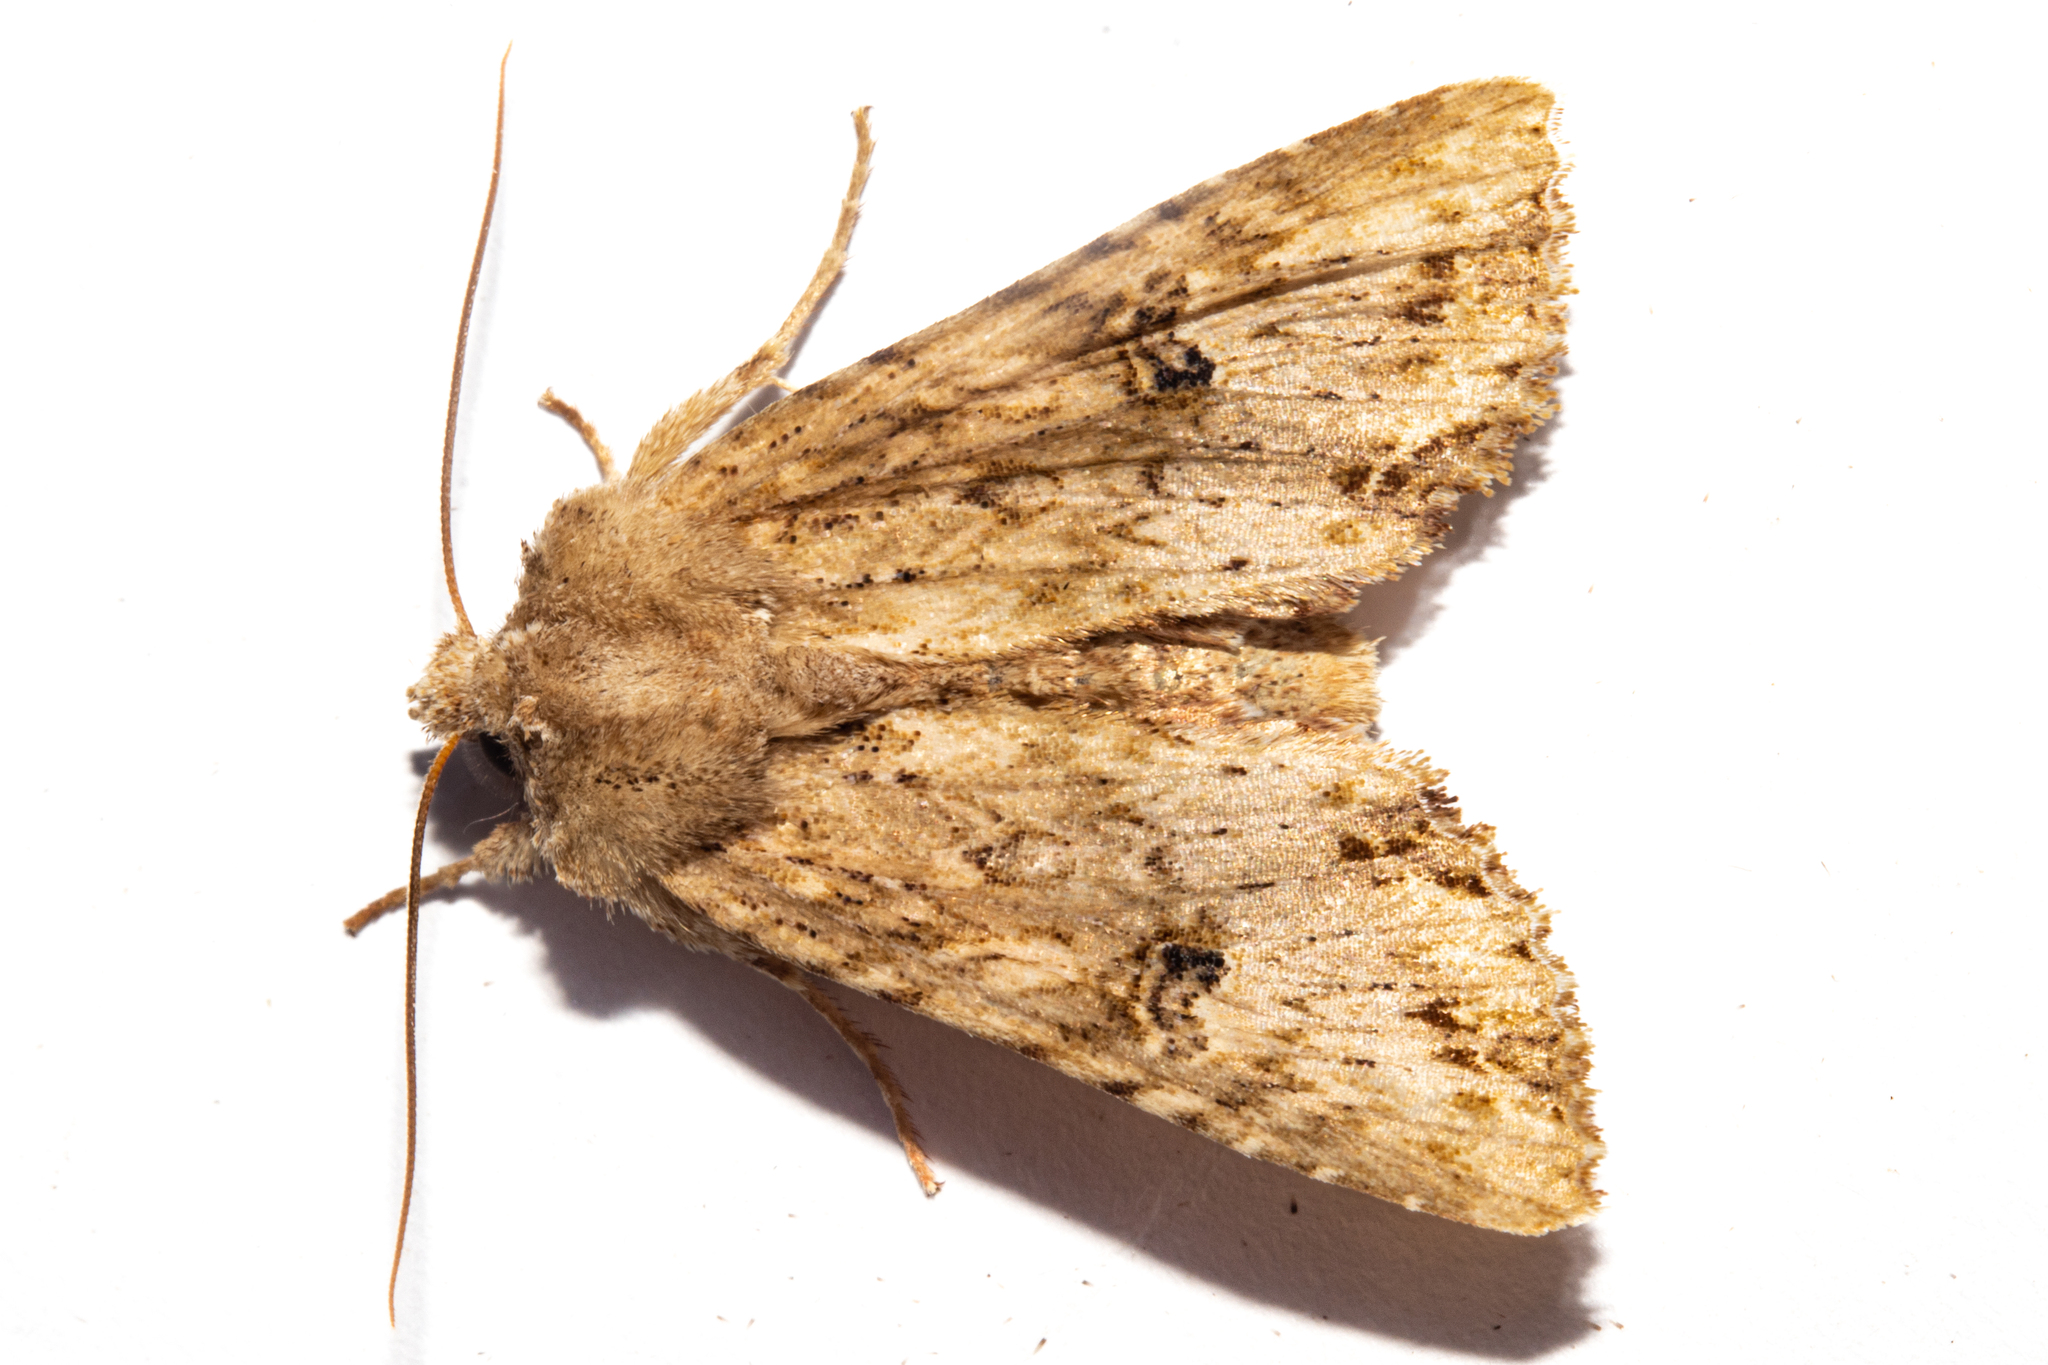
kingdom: Animalia
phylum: Arthropoda
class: Insecta
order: Lepidoptera
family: Noctuidae
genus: Meterana
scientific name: Meterana pascoei
